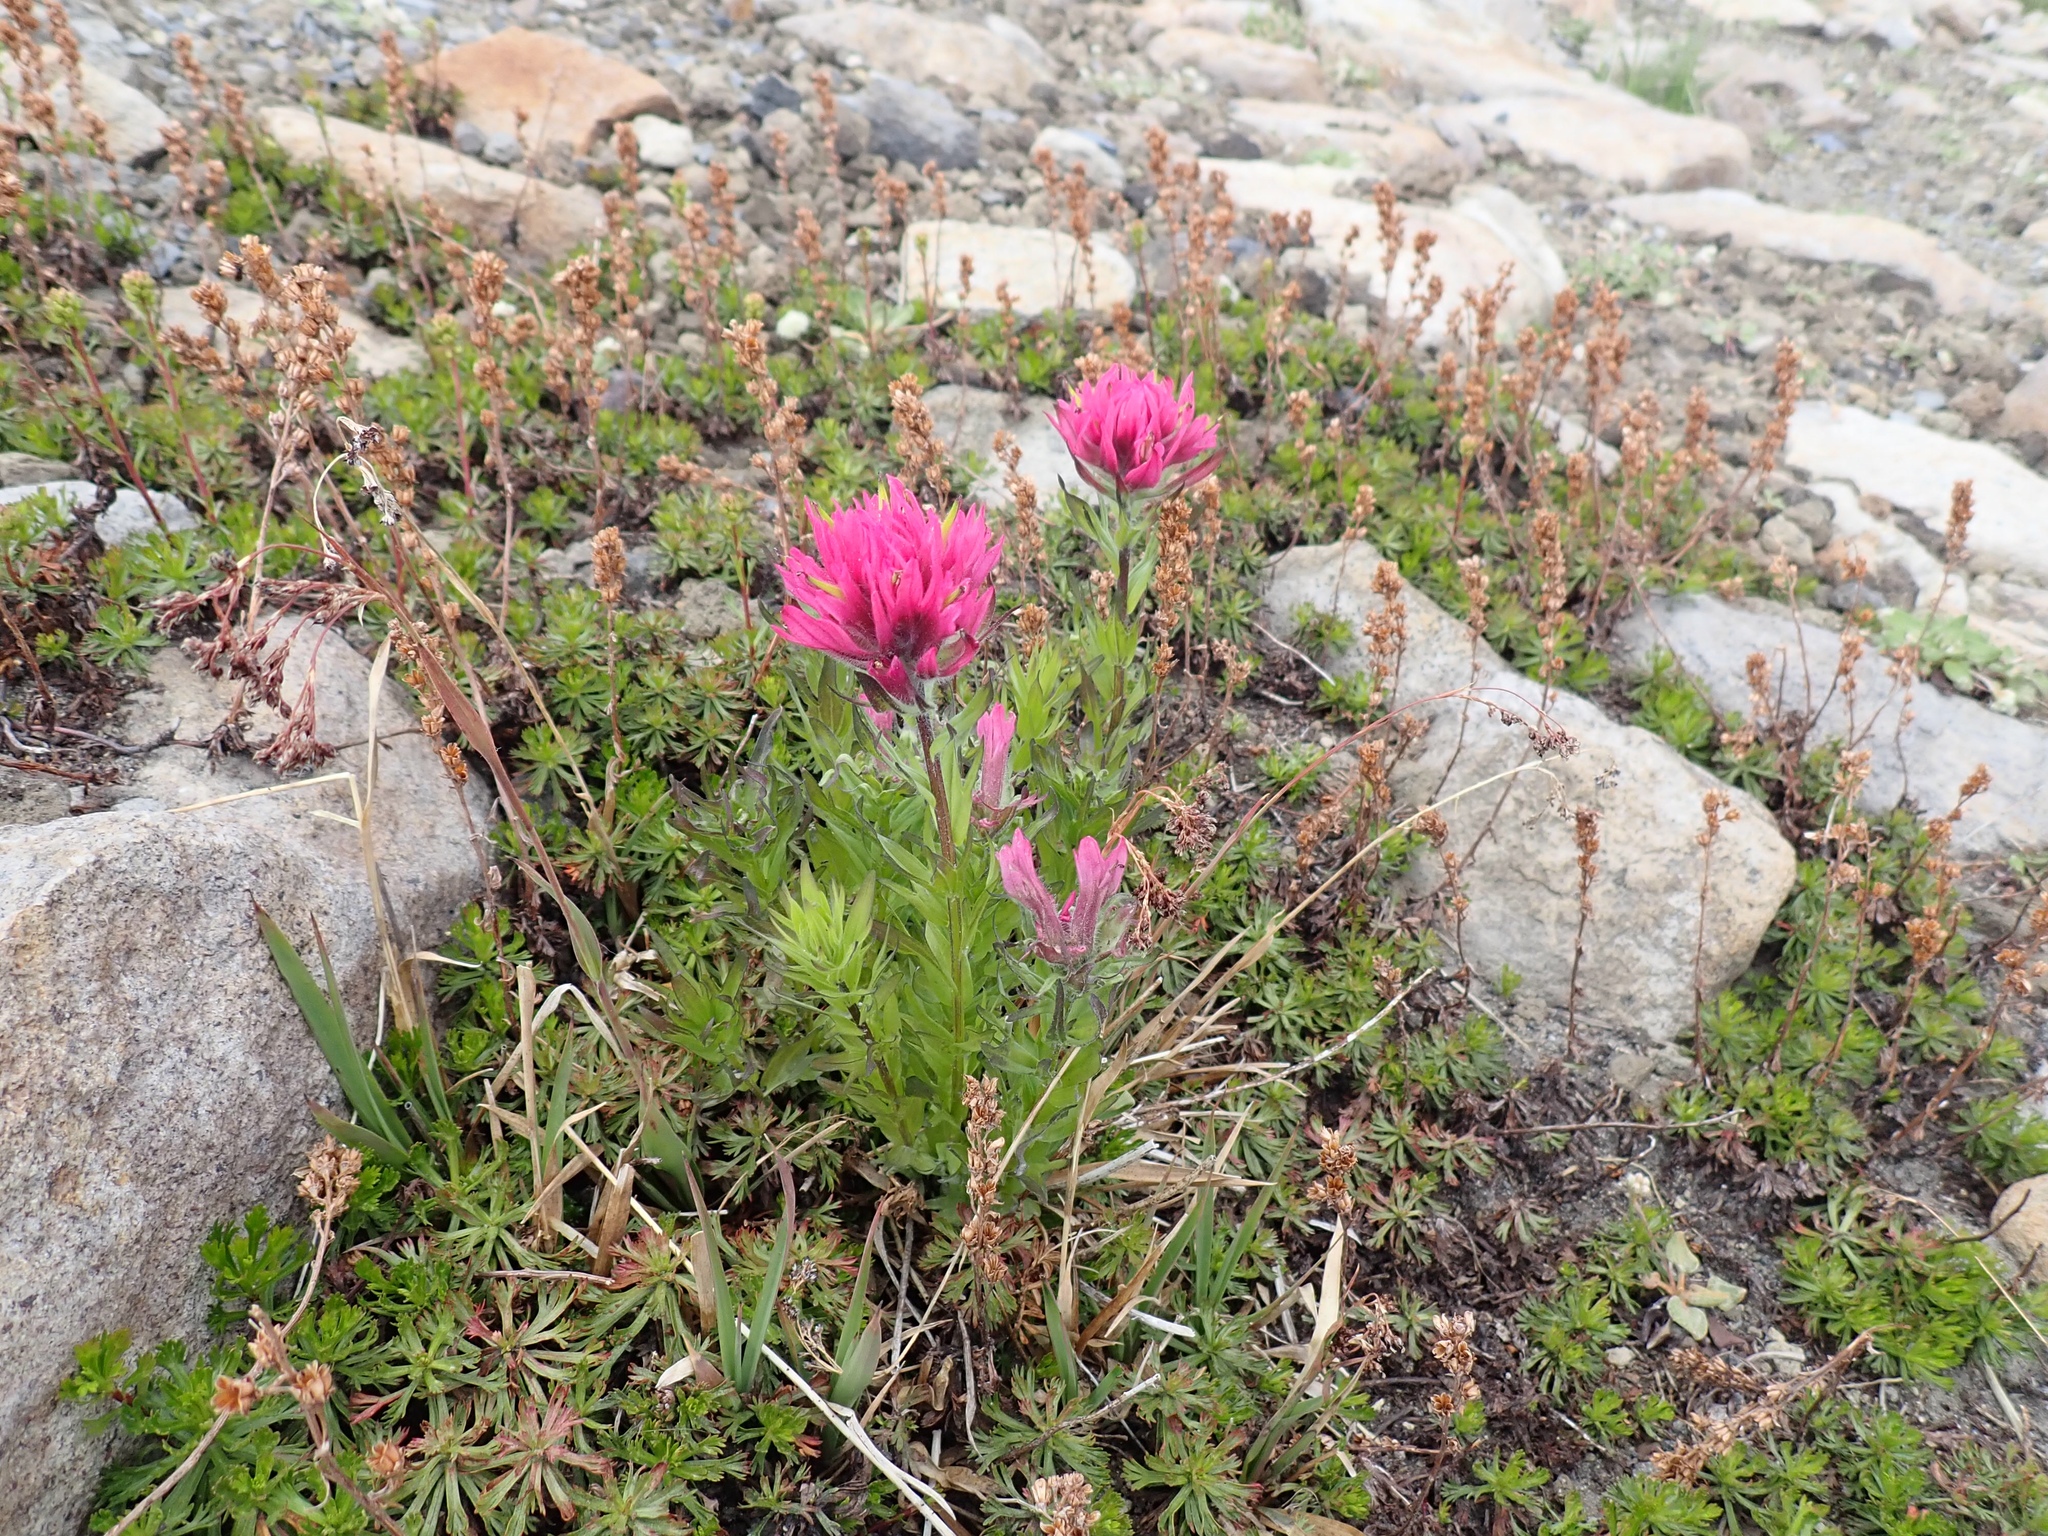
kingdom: Plantae
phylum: Tracheophyta
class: Magnoliopsida
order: Lamiales
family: Orobanchaceae
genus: Castilleja
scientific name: Castilleja parviflora
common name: Mountain paintbrush
